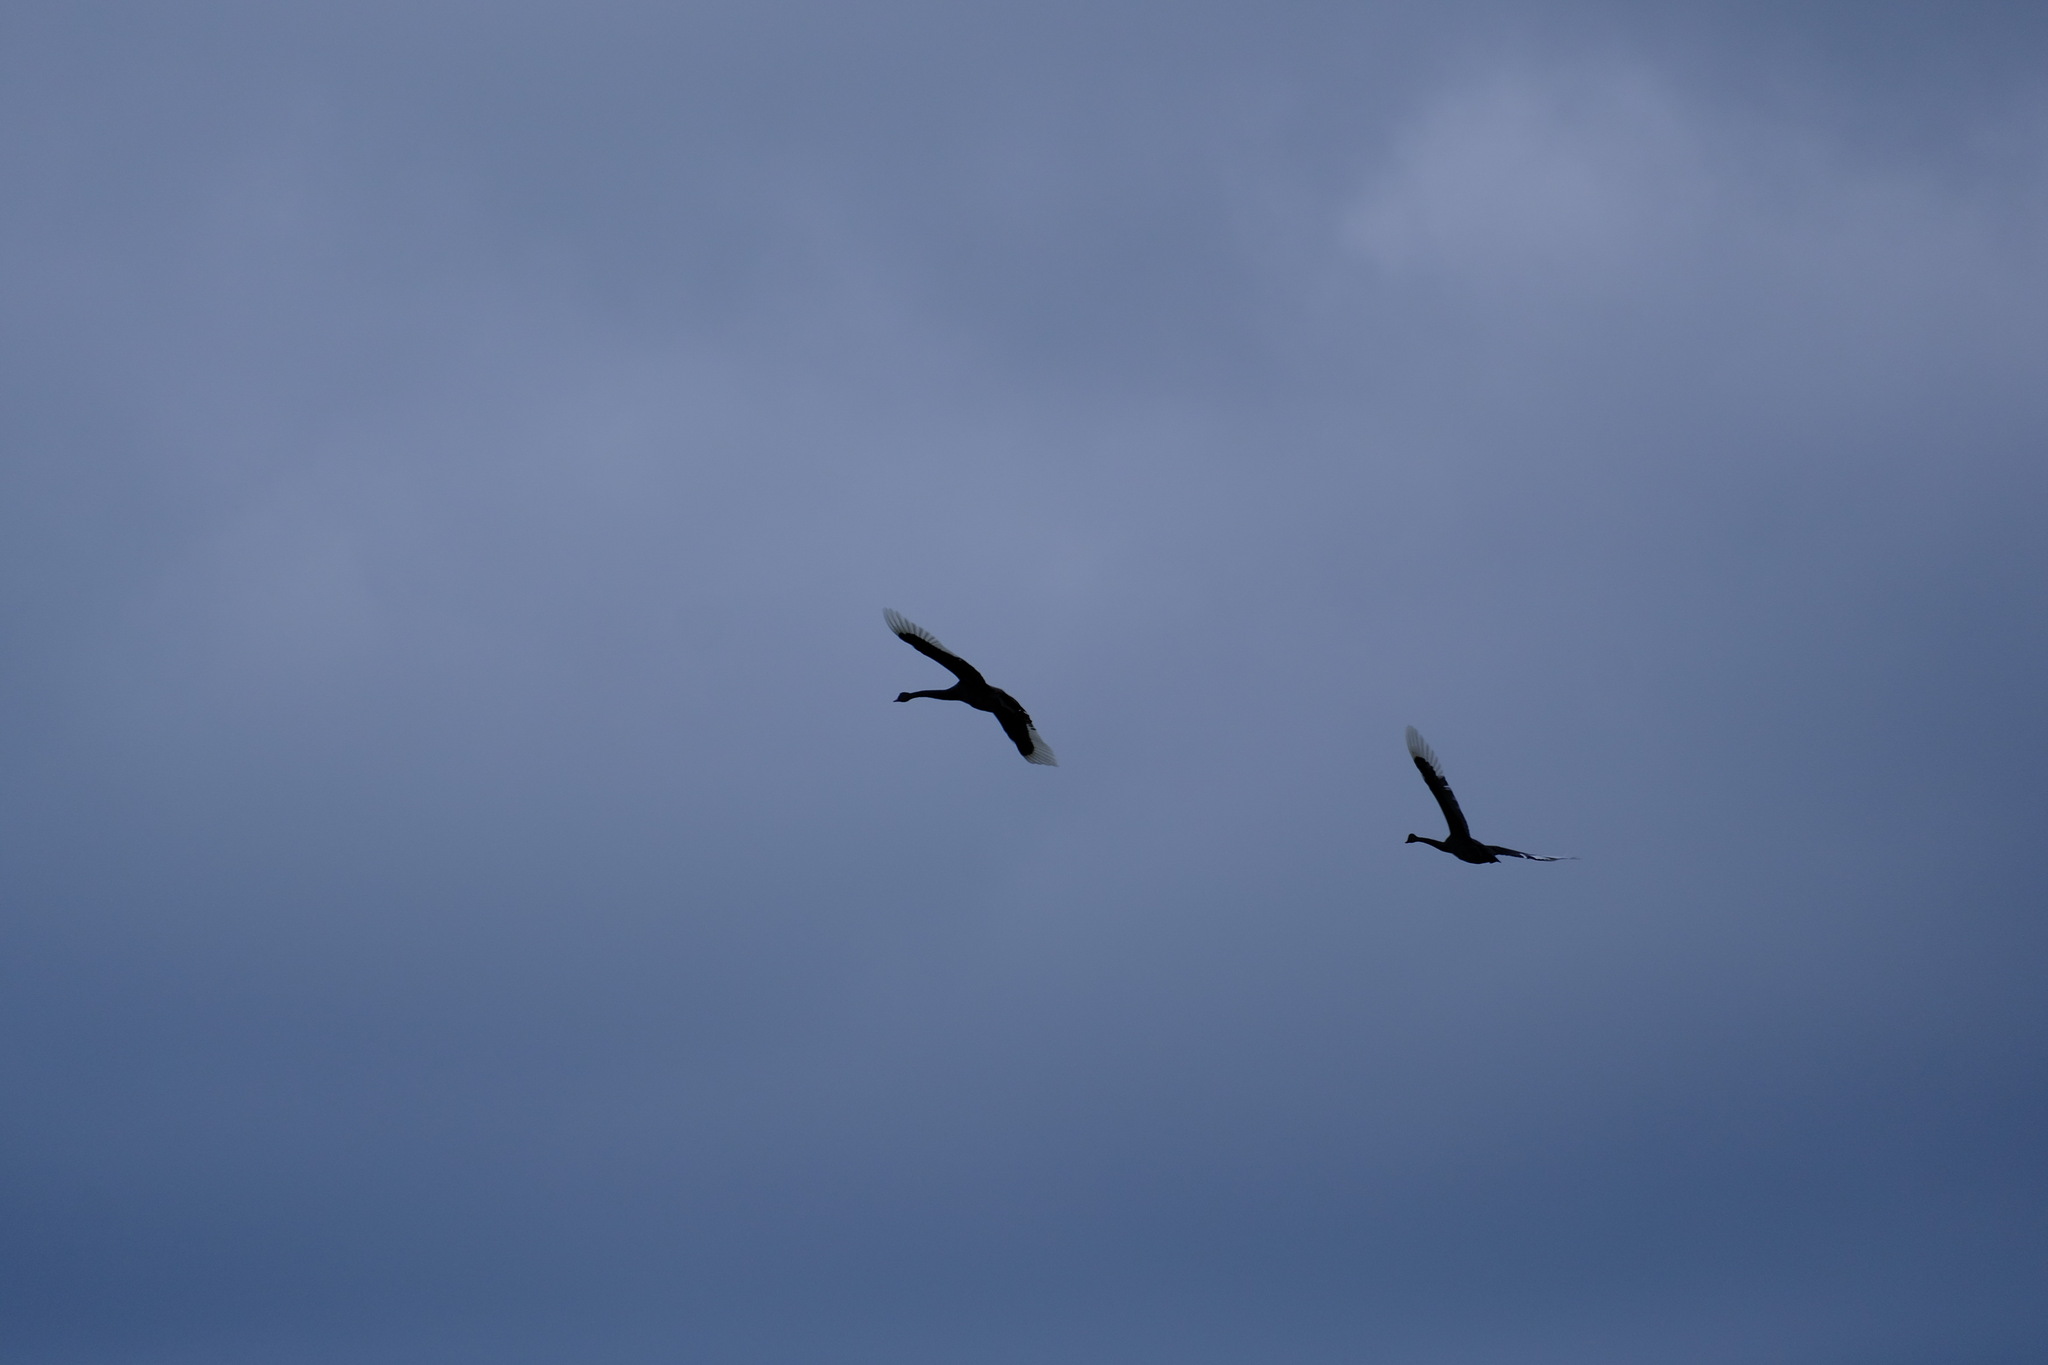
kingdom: Animalia
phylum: Chordata
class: Aves
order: Anseriformes
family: Anatidae
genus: Cygnus
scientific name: Cygnus atratus
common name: Black swan
